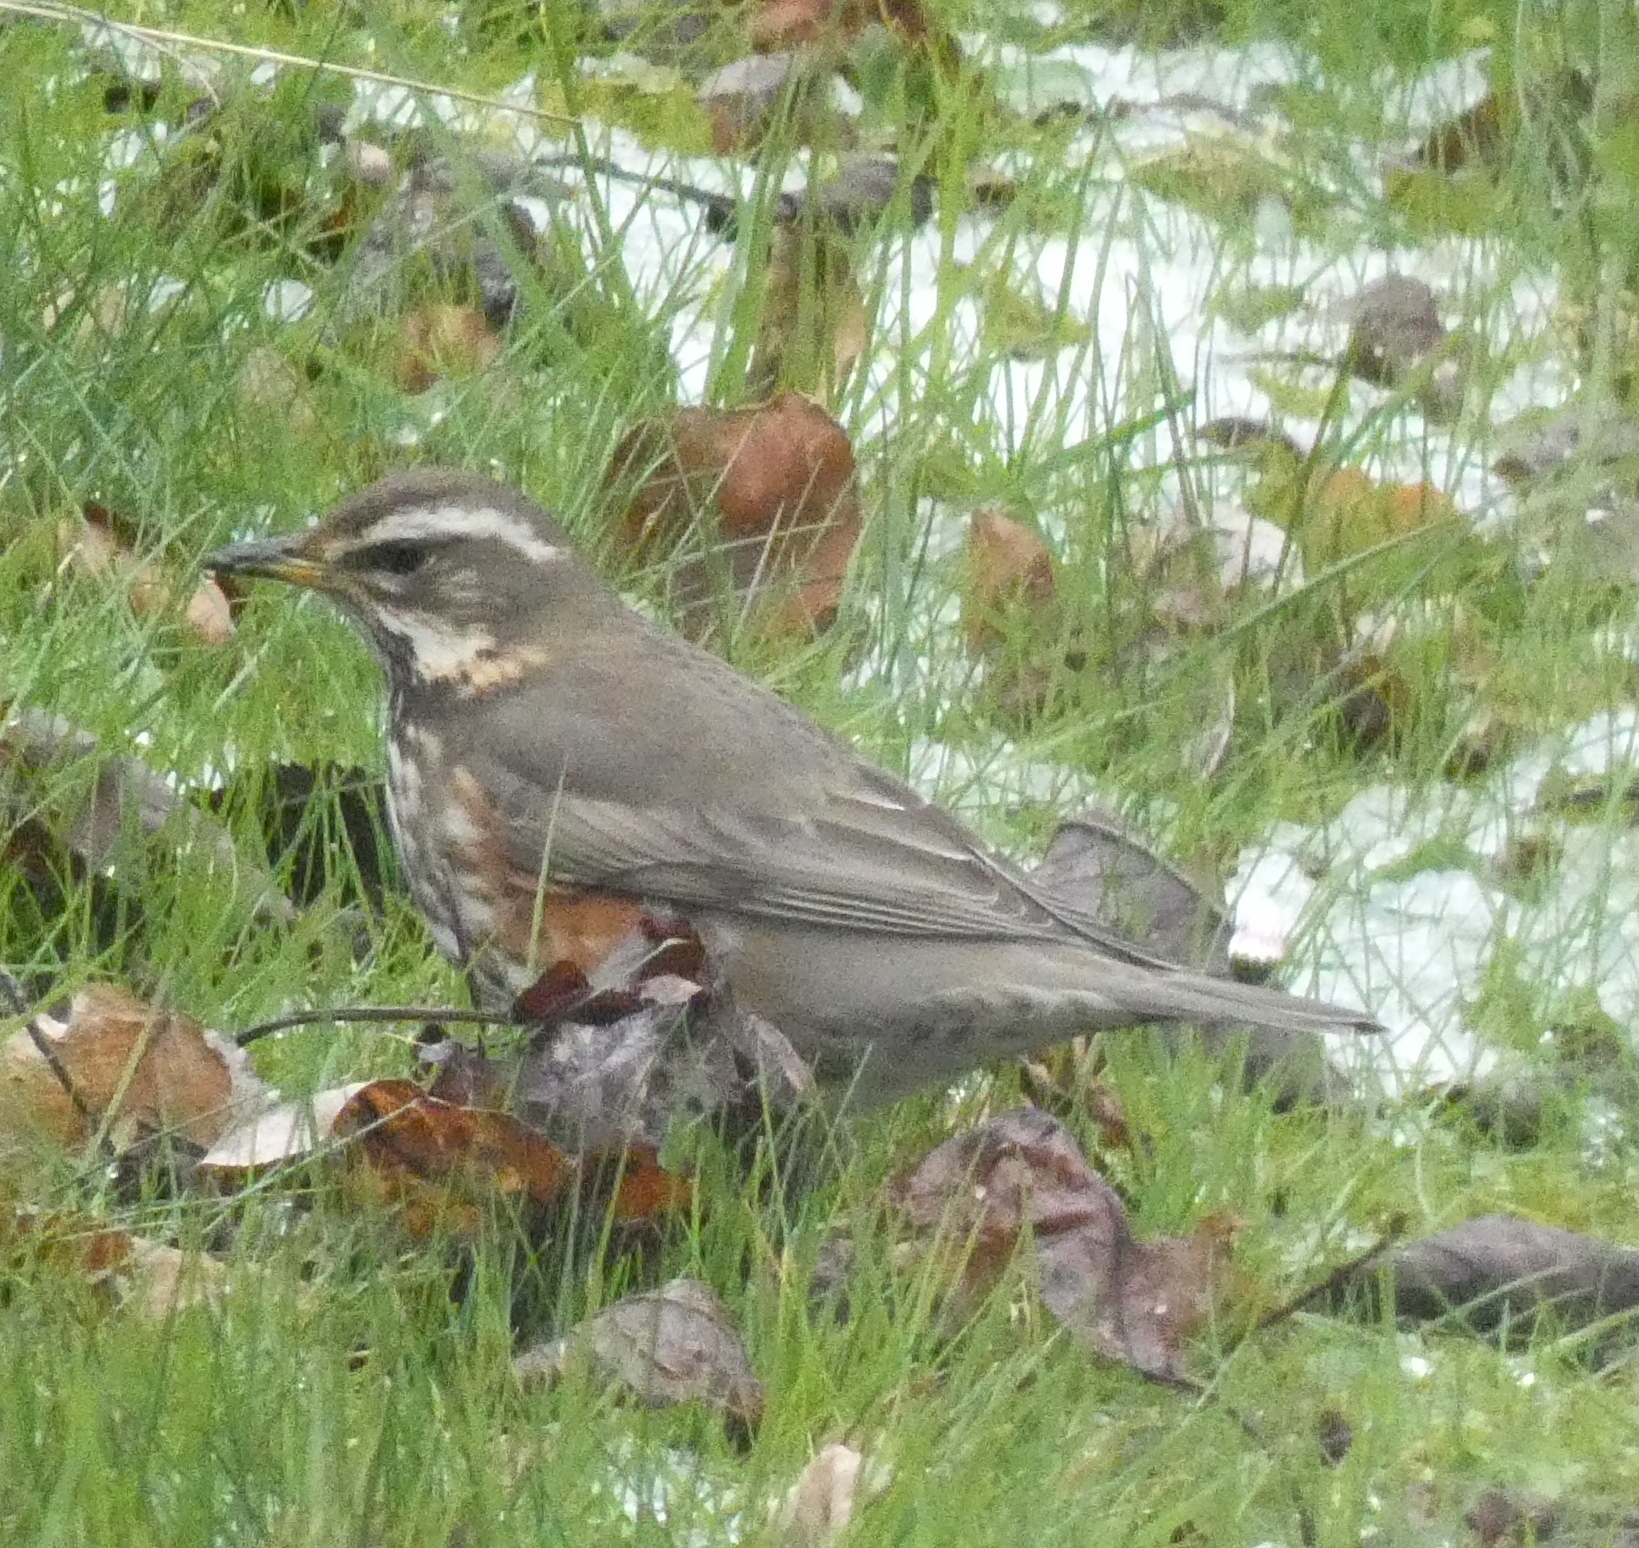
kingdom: Animalia
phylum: Chordata
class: Aves
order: Passeriformes
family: Turdidae
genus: Turdus
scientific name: Turdus iliacus
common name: Redwing
